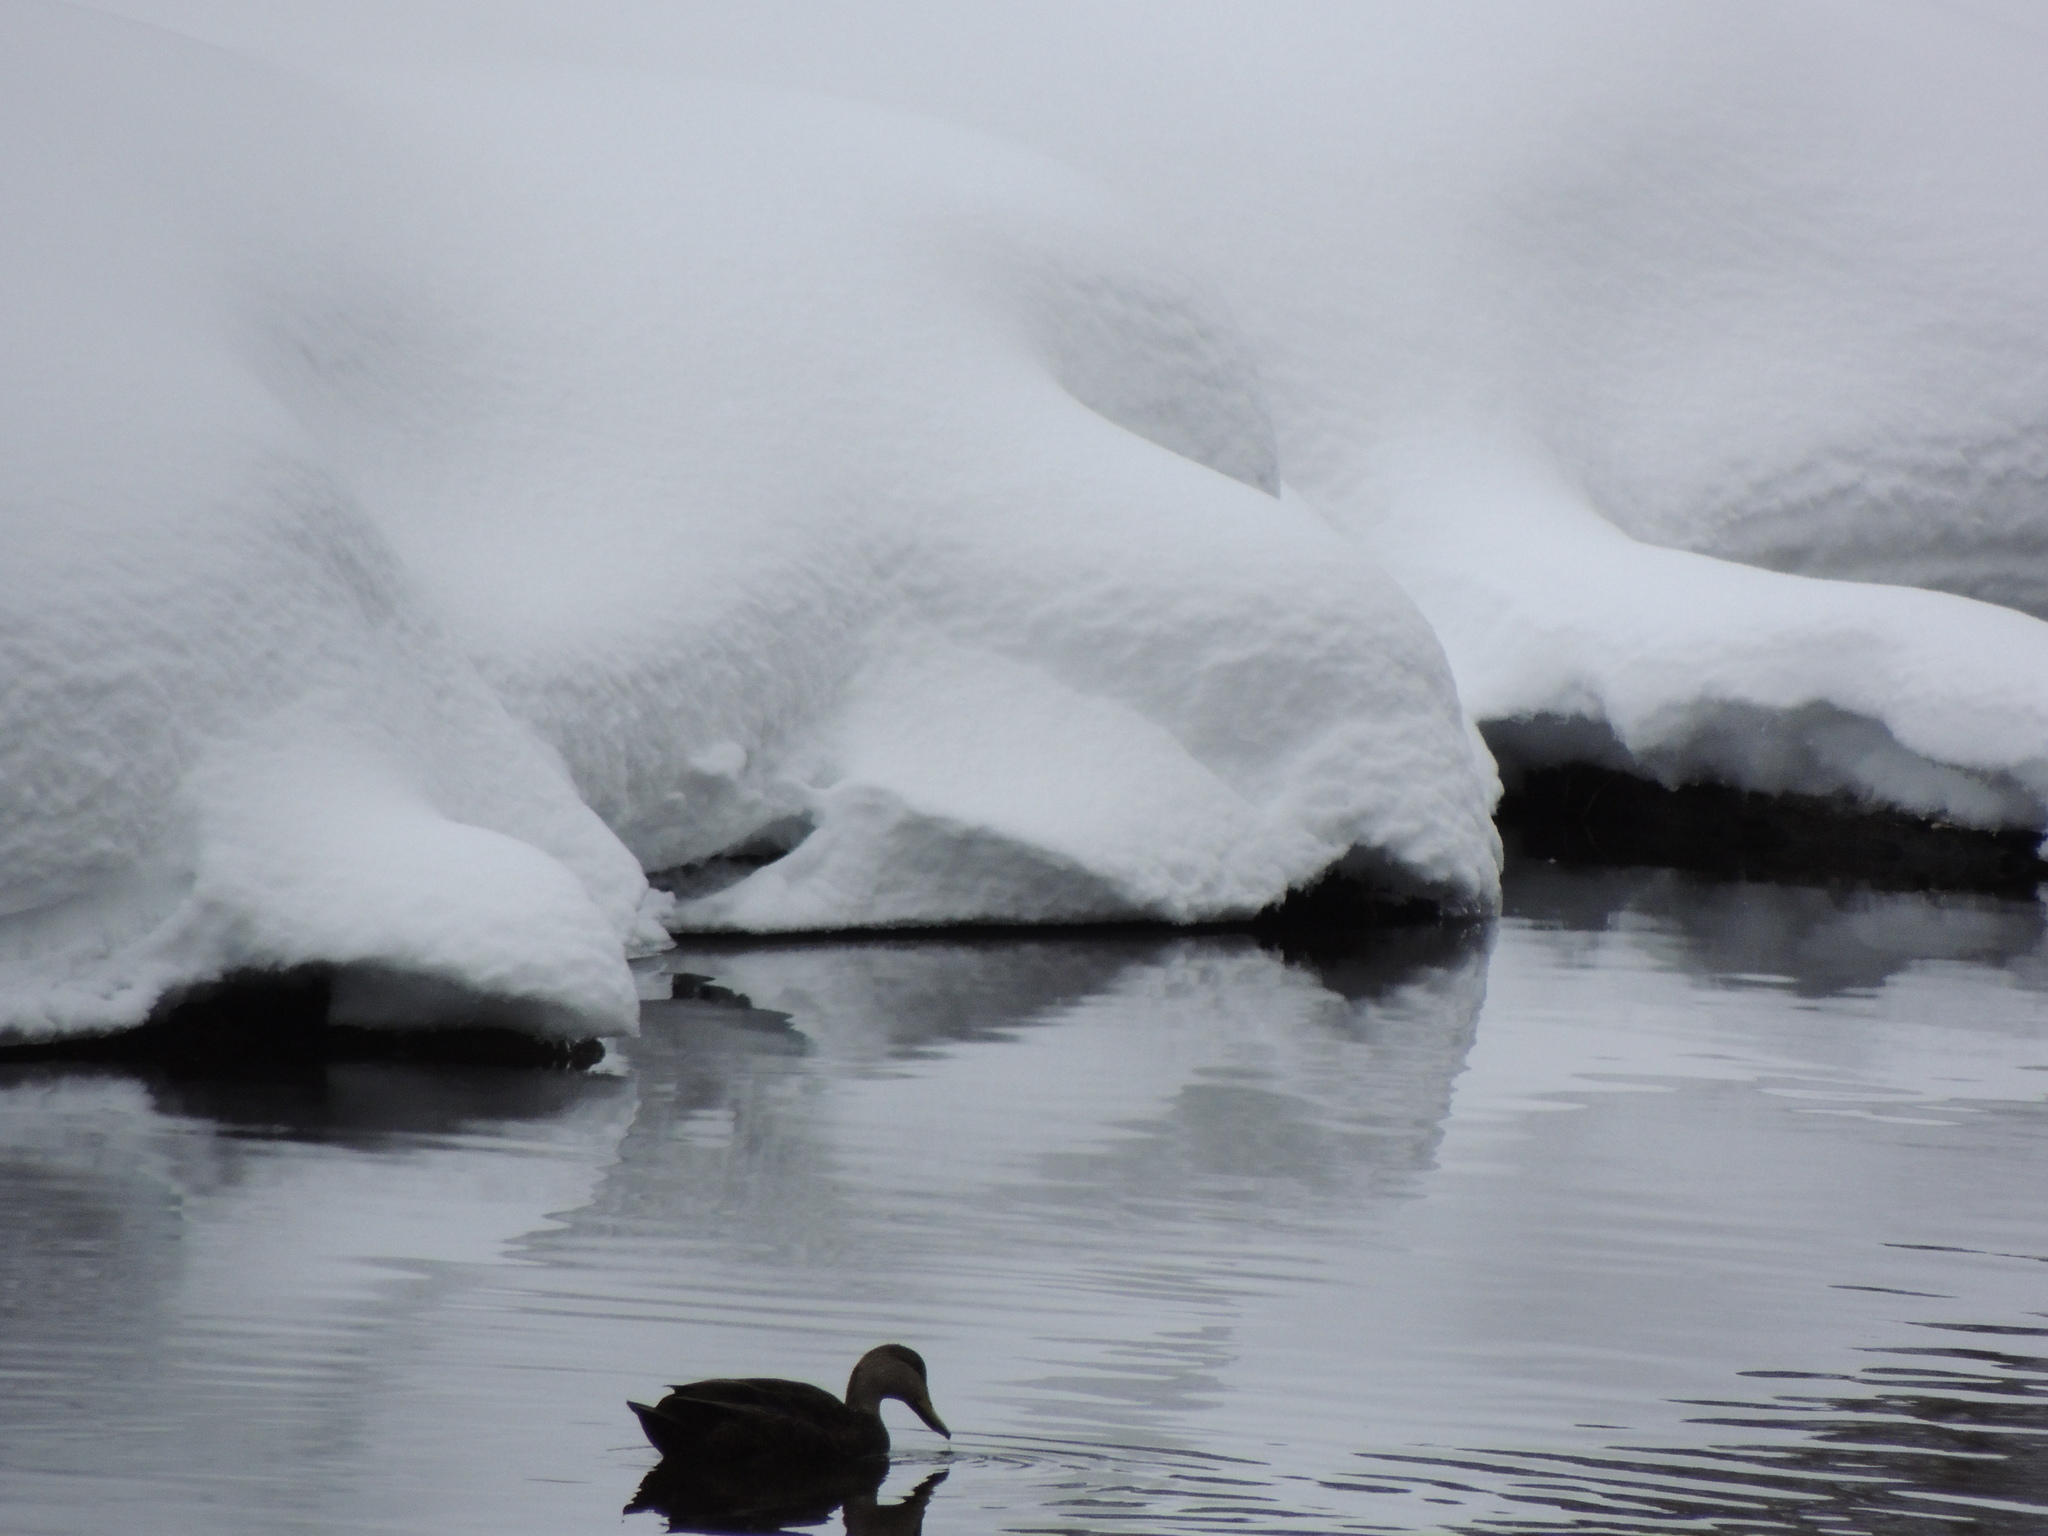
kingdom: Animalia
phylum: Chordata
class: Aves
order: Anseriformes
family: Anatidae
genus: Anas
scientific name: Anas rubripes
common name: American black duck
